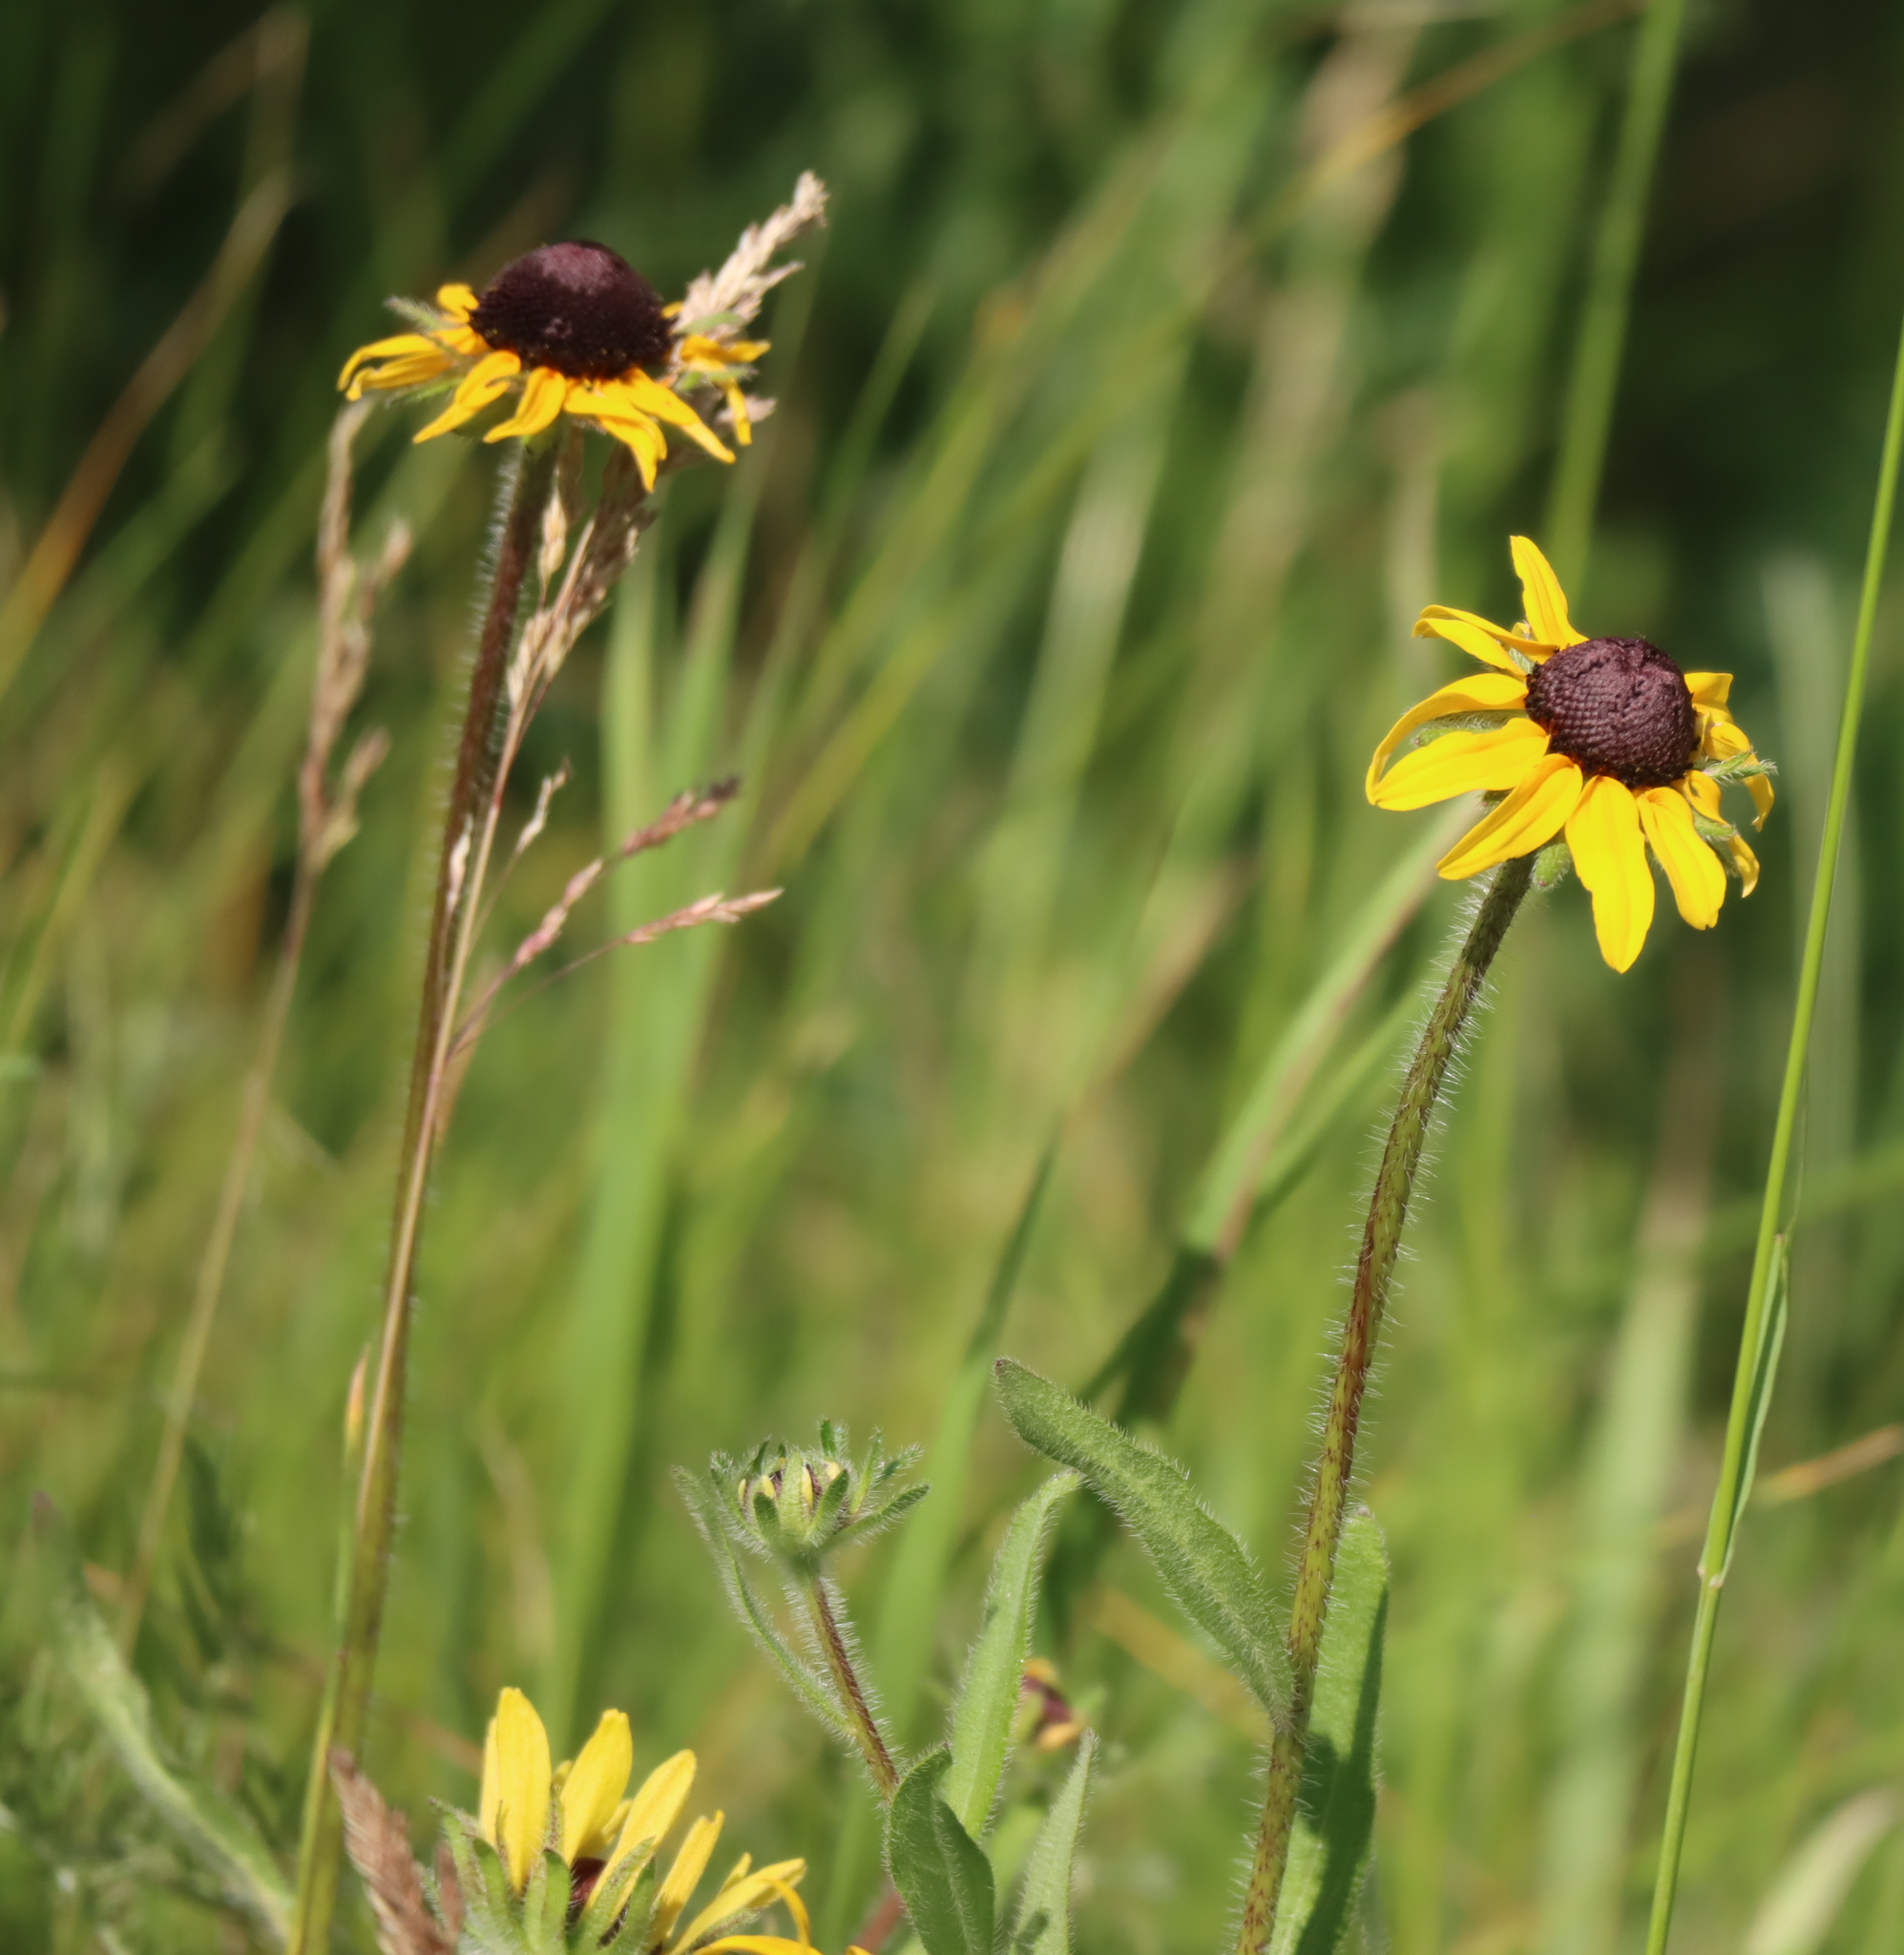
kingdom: Plantae
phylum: Tracheophyta
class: Magnoliopsida
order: Asterales
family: Asteraceae
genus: Rudbeckia
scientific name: Rudbeckia hirta
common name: Black-eyed-susan
